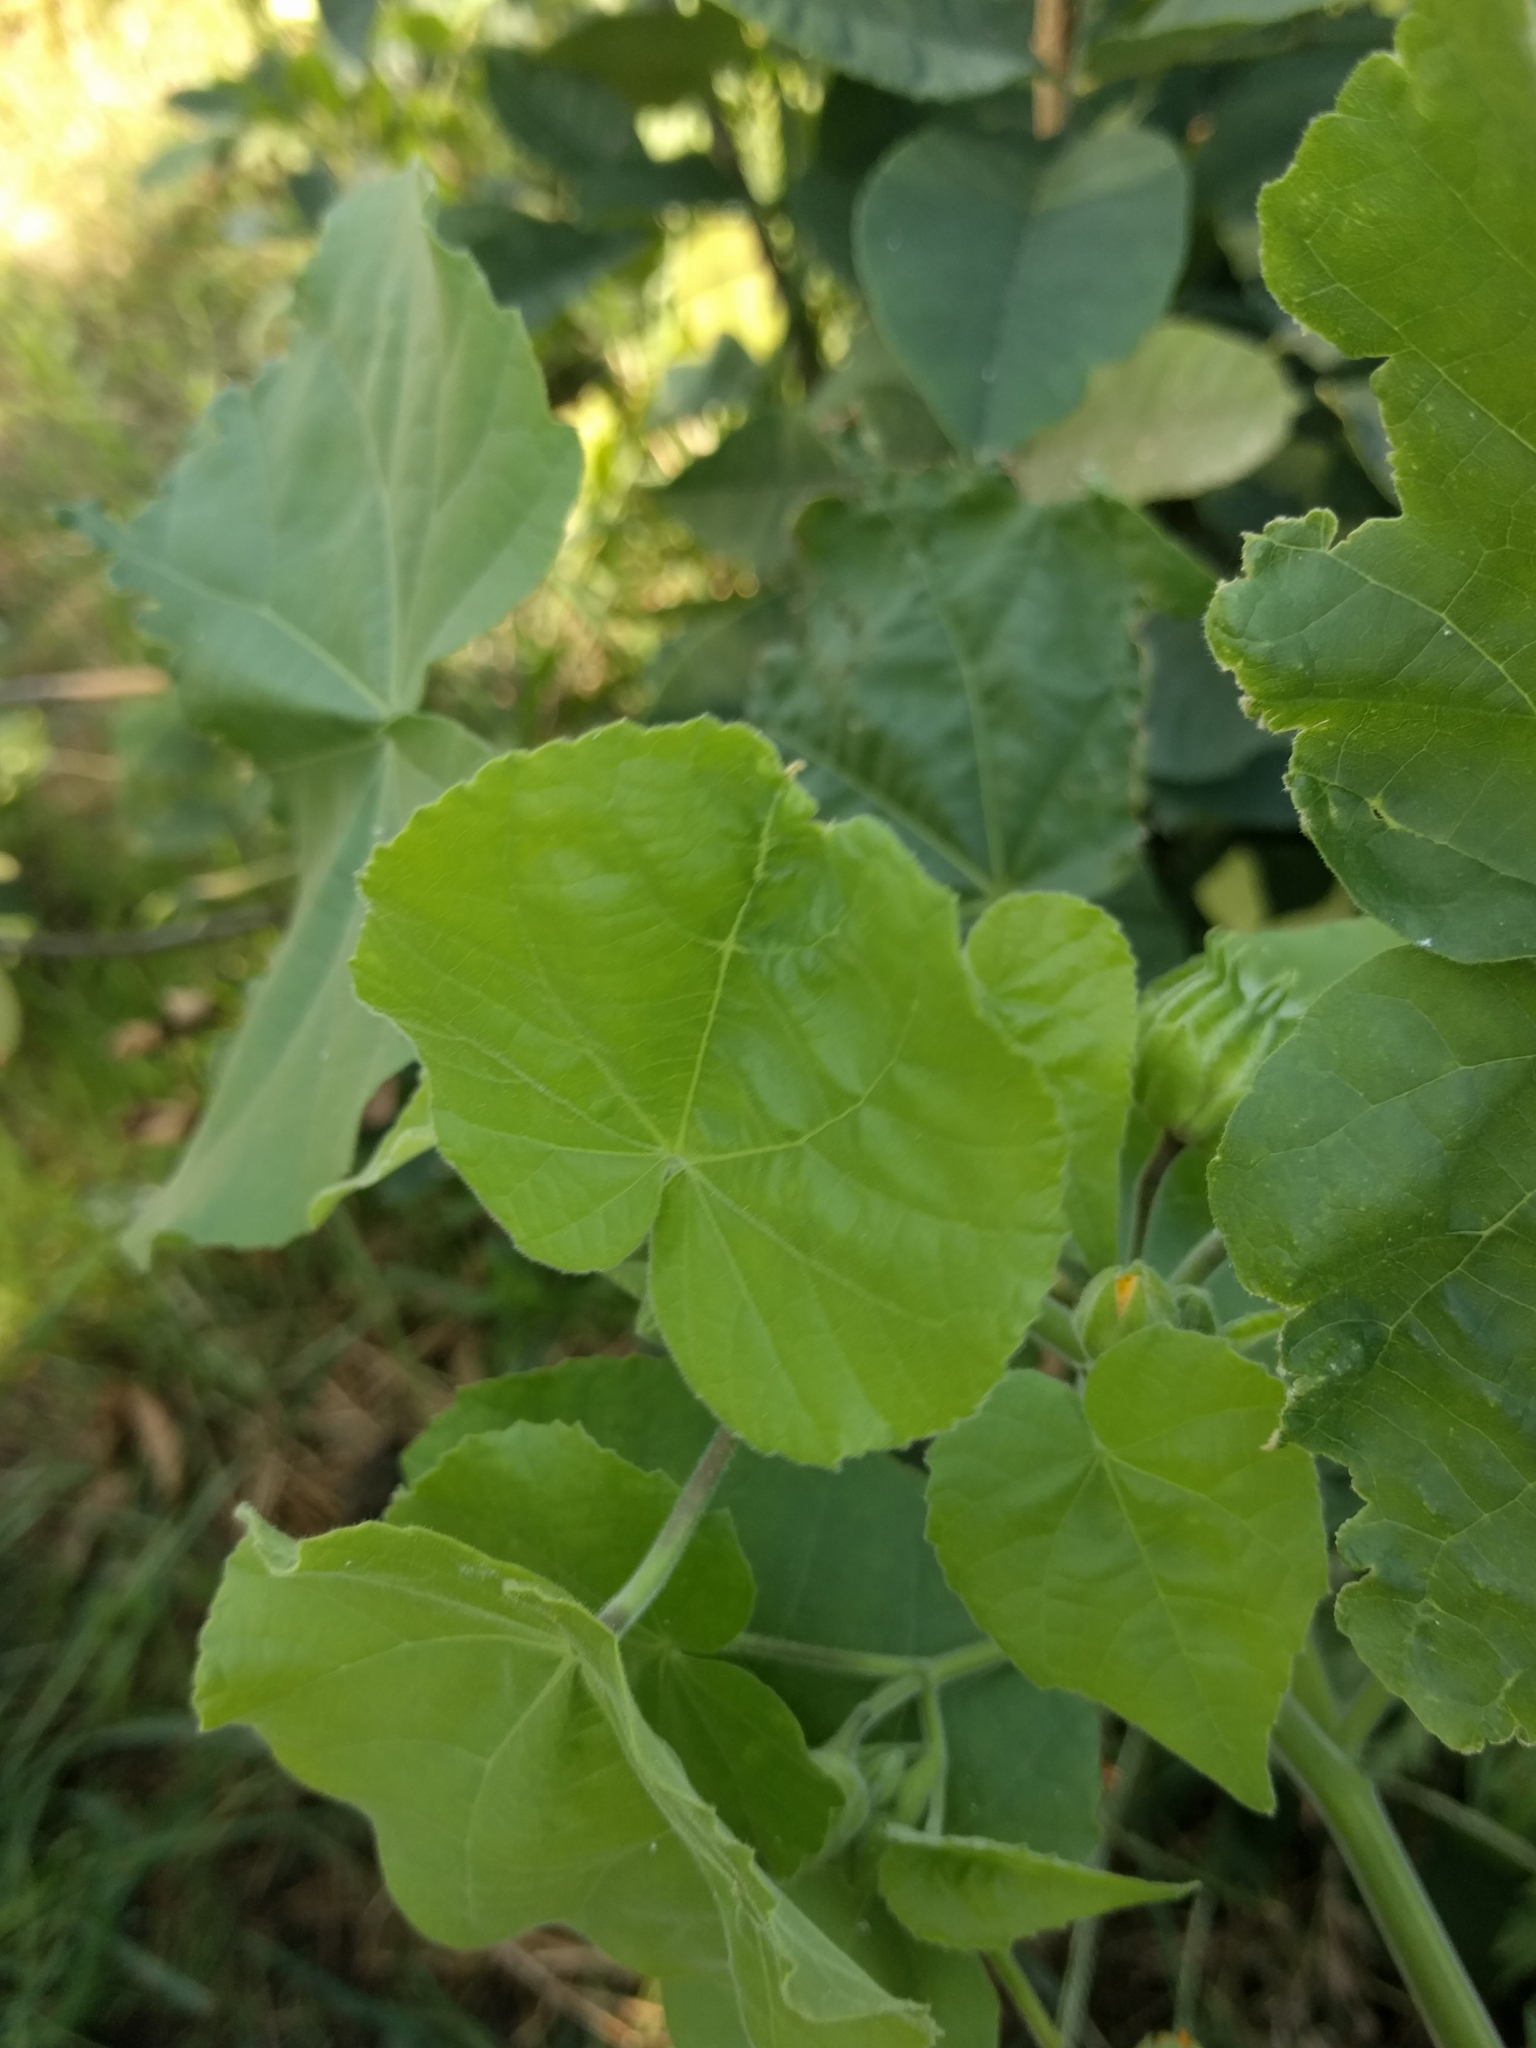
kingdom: Plantae
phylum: Tracheophyta
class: Magnoliopsida
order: Malvales
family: Malvaceae
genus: Abutilon
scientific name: Abutilon theophrasti
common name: Velvetleaf
